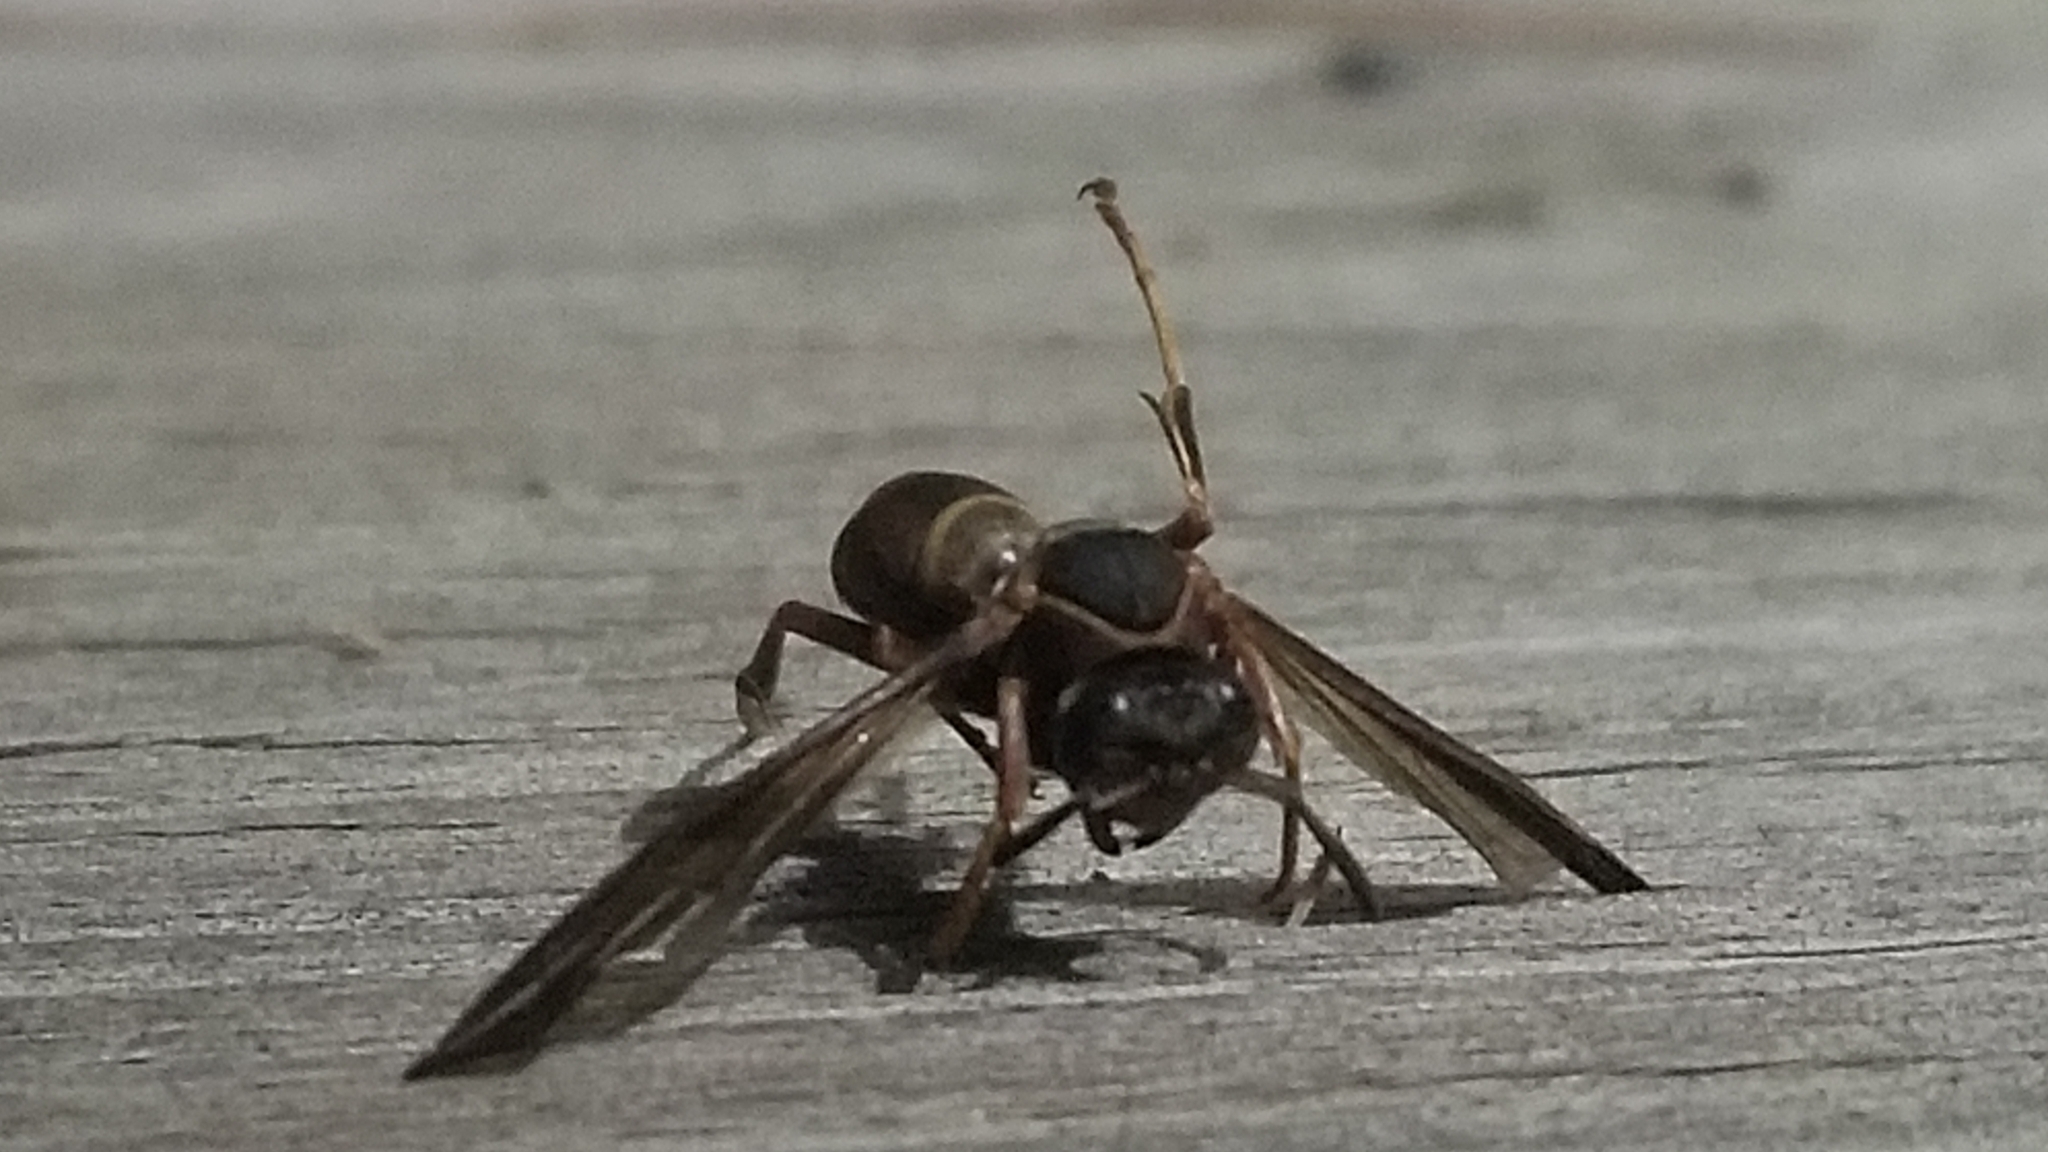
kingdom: Animalia
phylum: Arthropoda
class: Insecta
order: Hymenoptera
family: Vespidae
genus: Fuscopolistes
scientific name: Fuscopolistes
